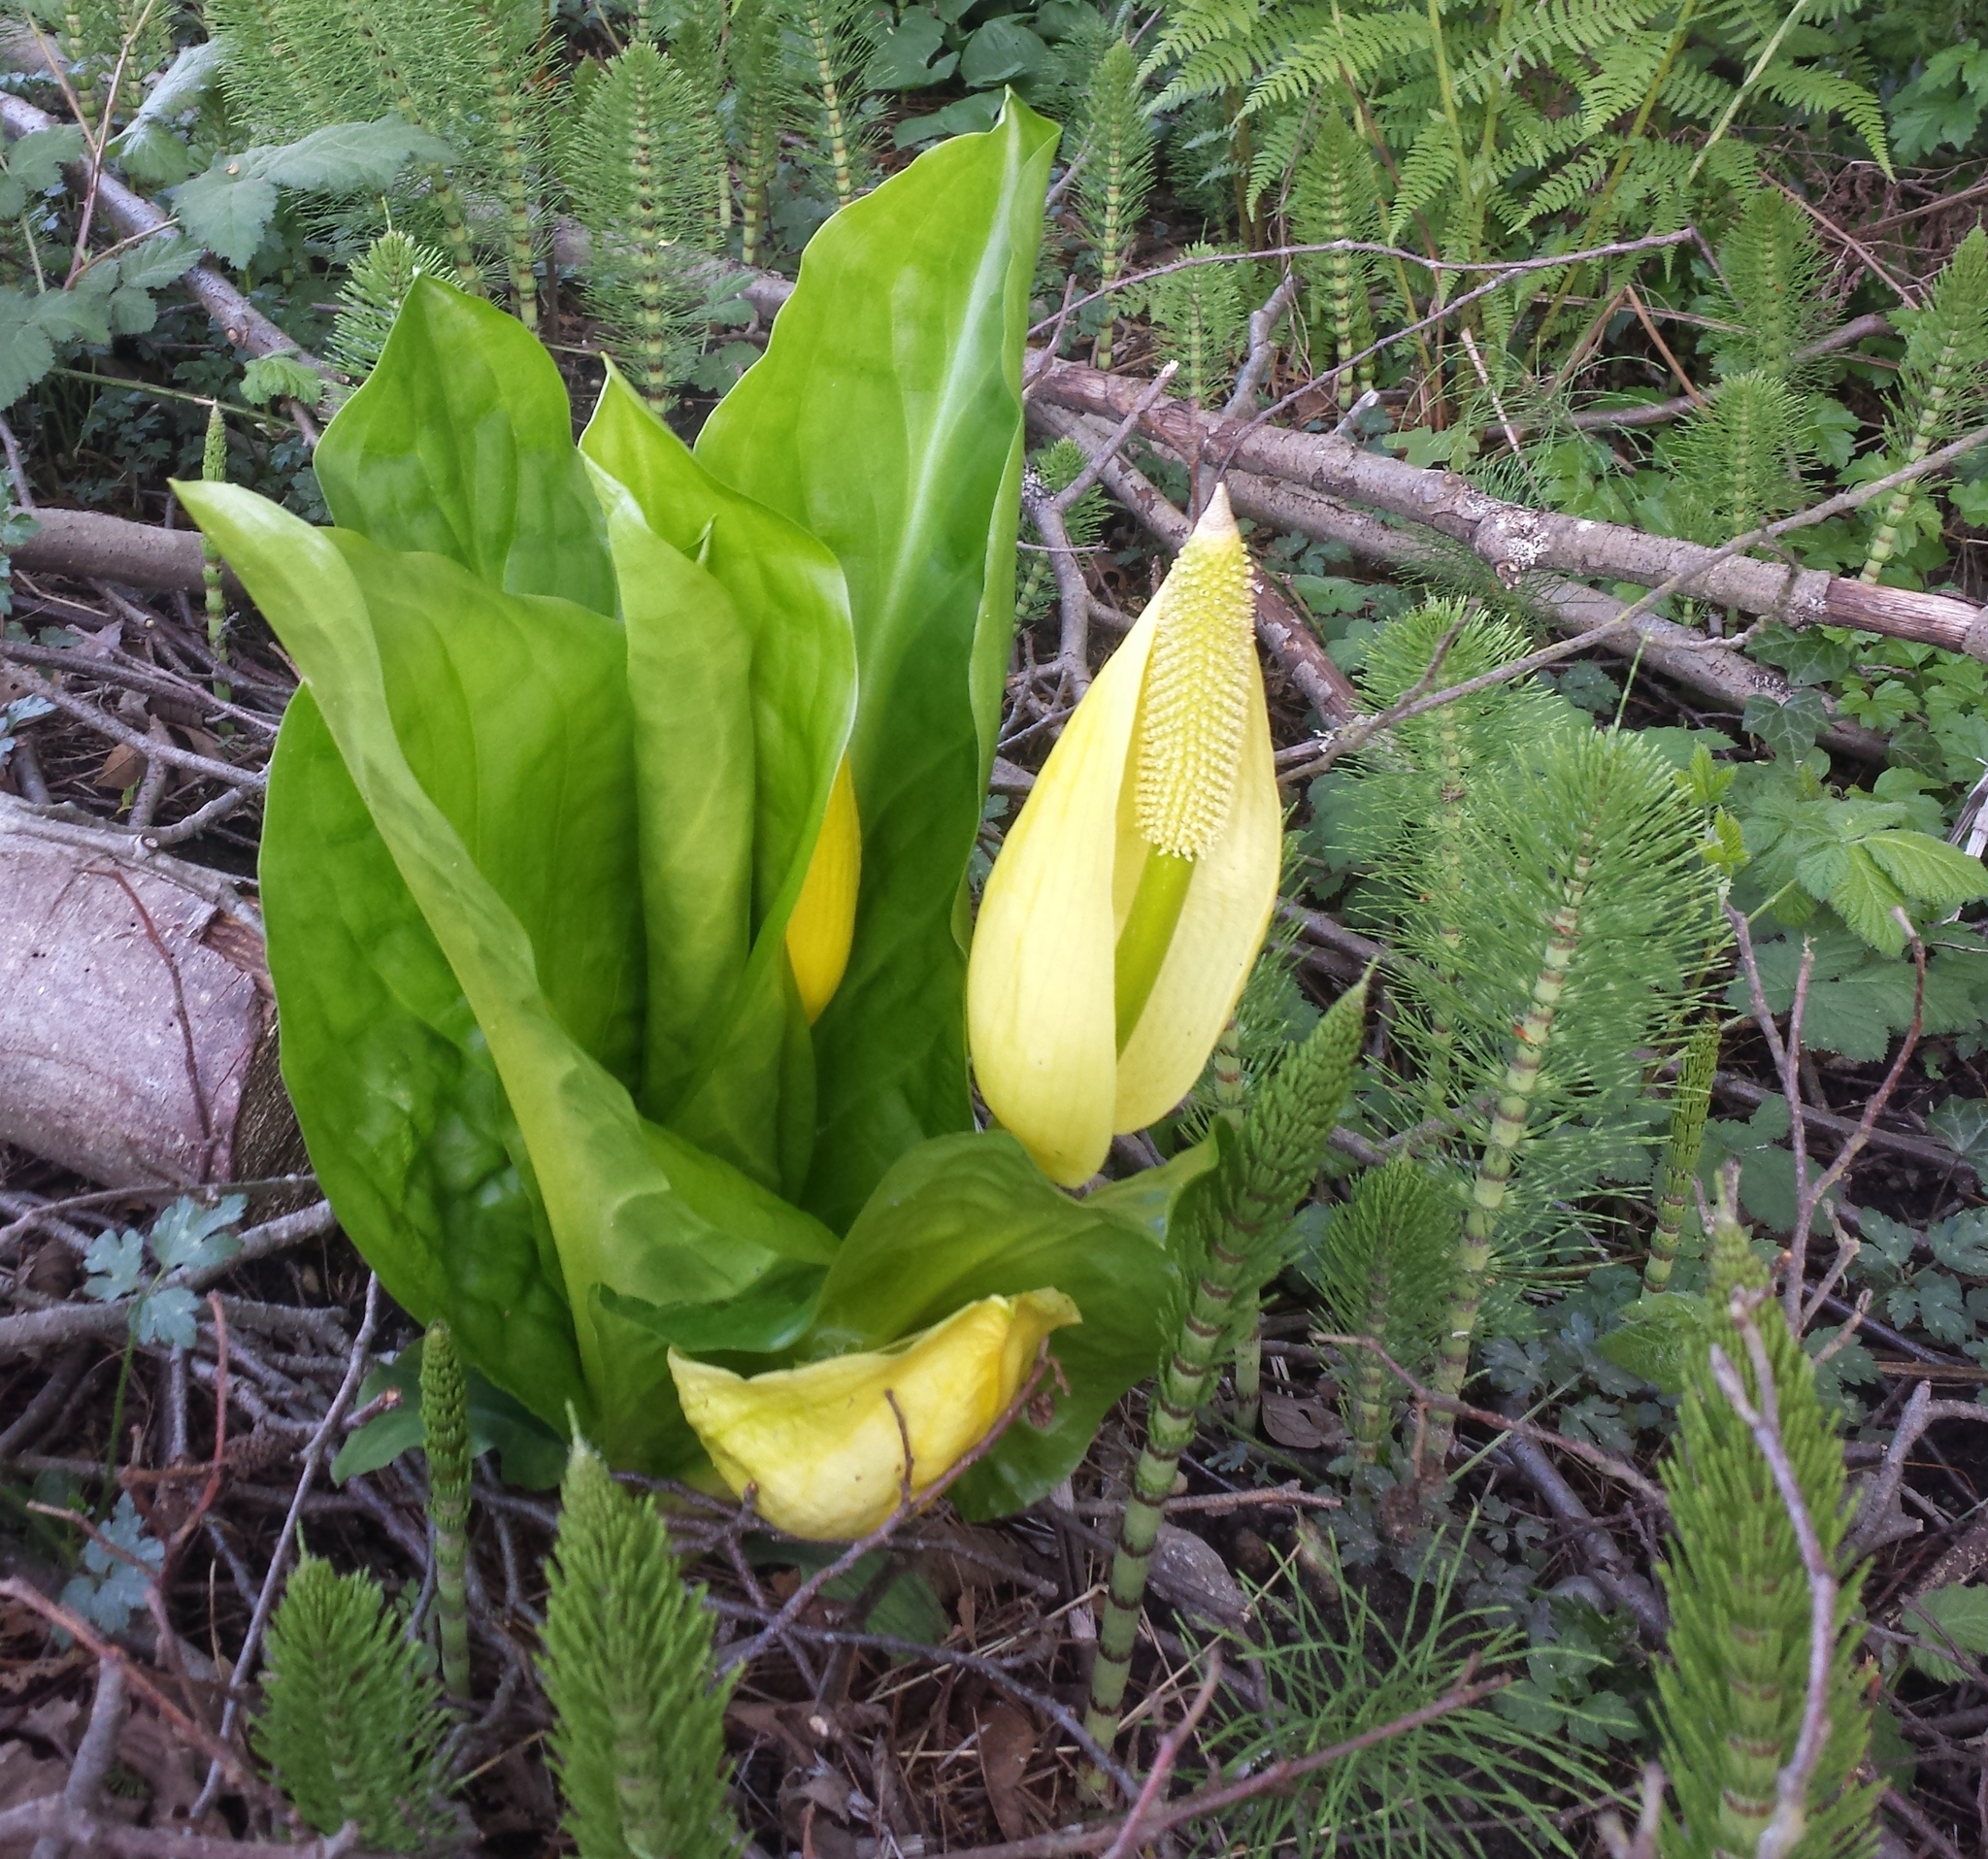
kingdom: Plantae
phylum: Tracheophyta
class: Liliopsida
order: Alismatales
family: Araceae
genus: Lysichiton
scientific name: Lysichiton americanus
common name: American skunk cabbage
